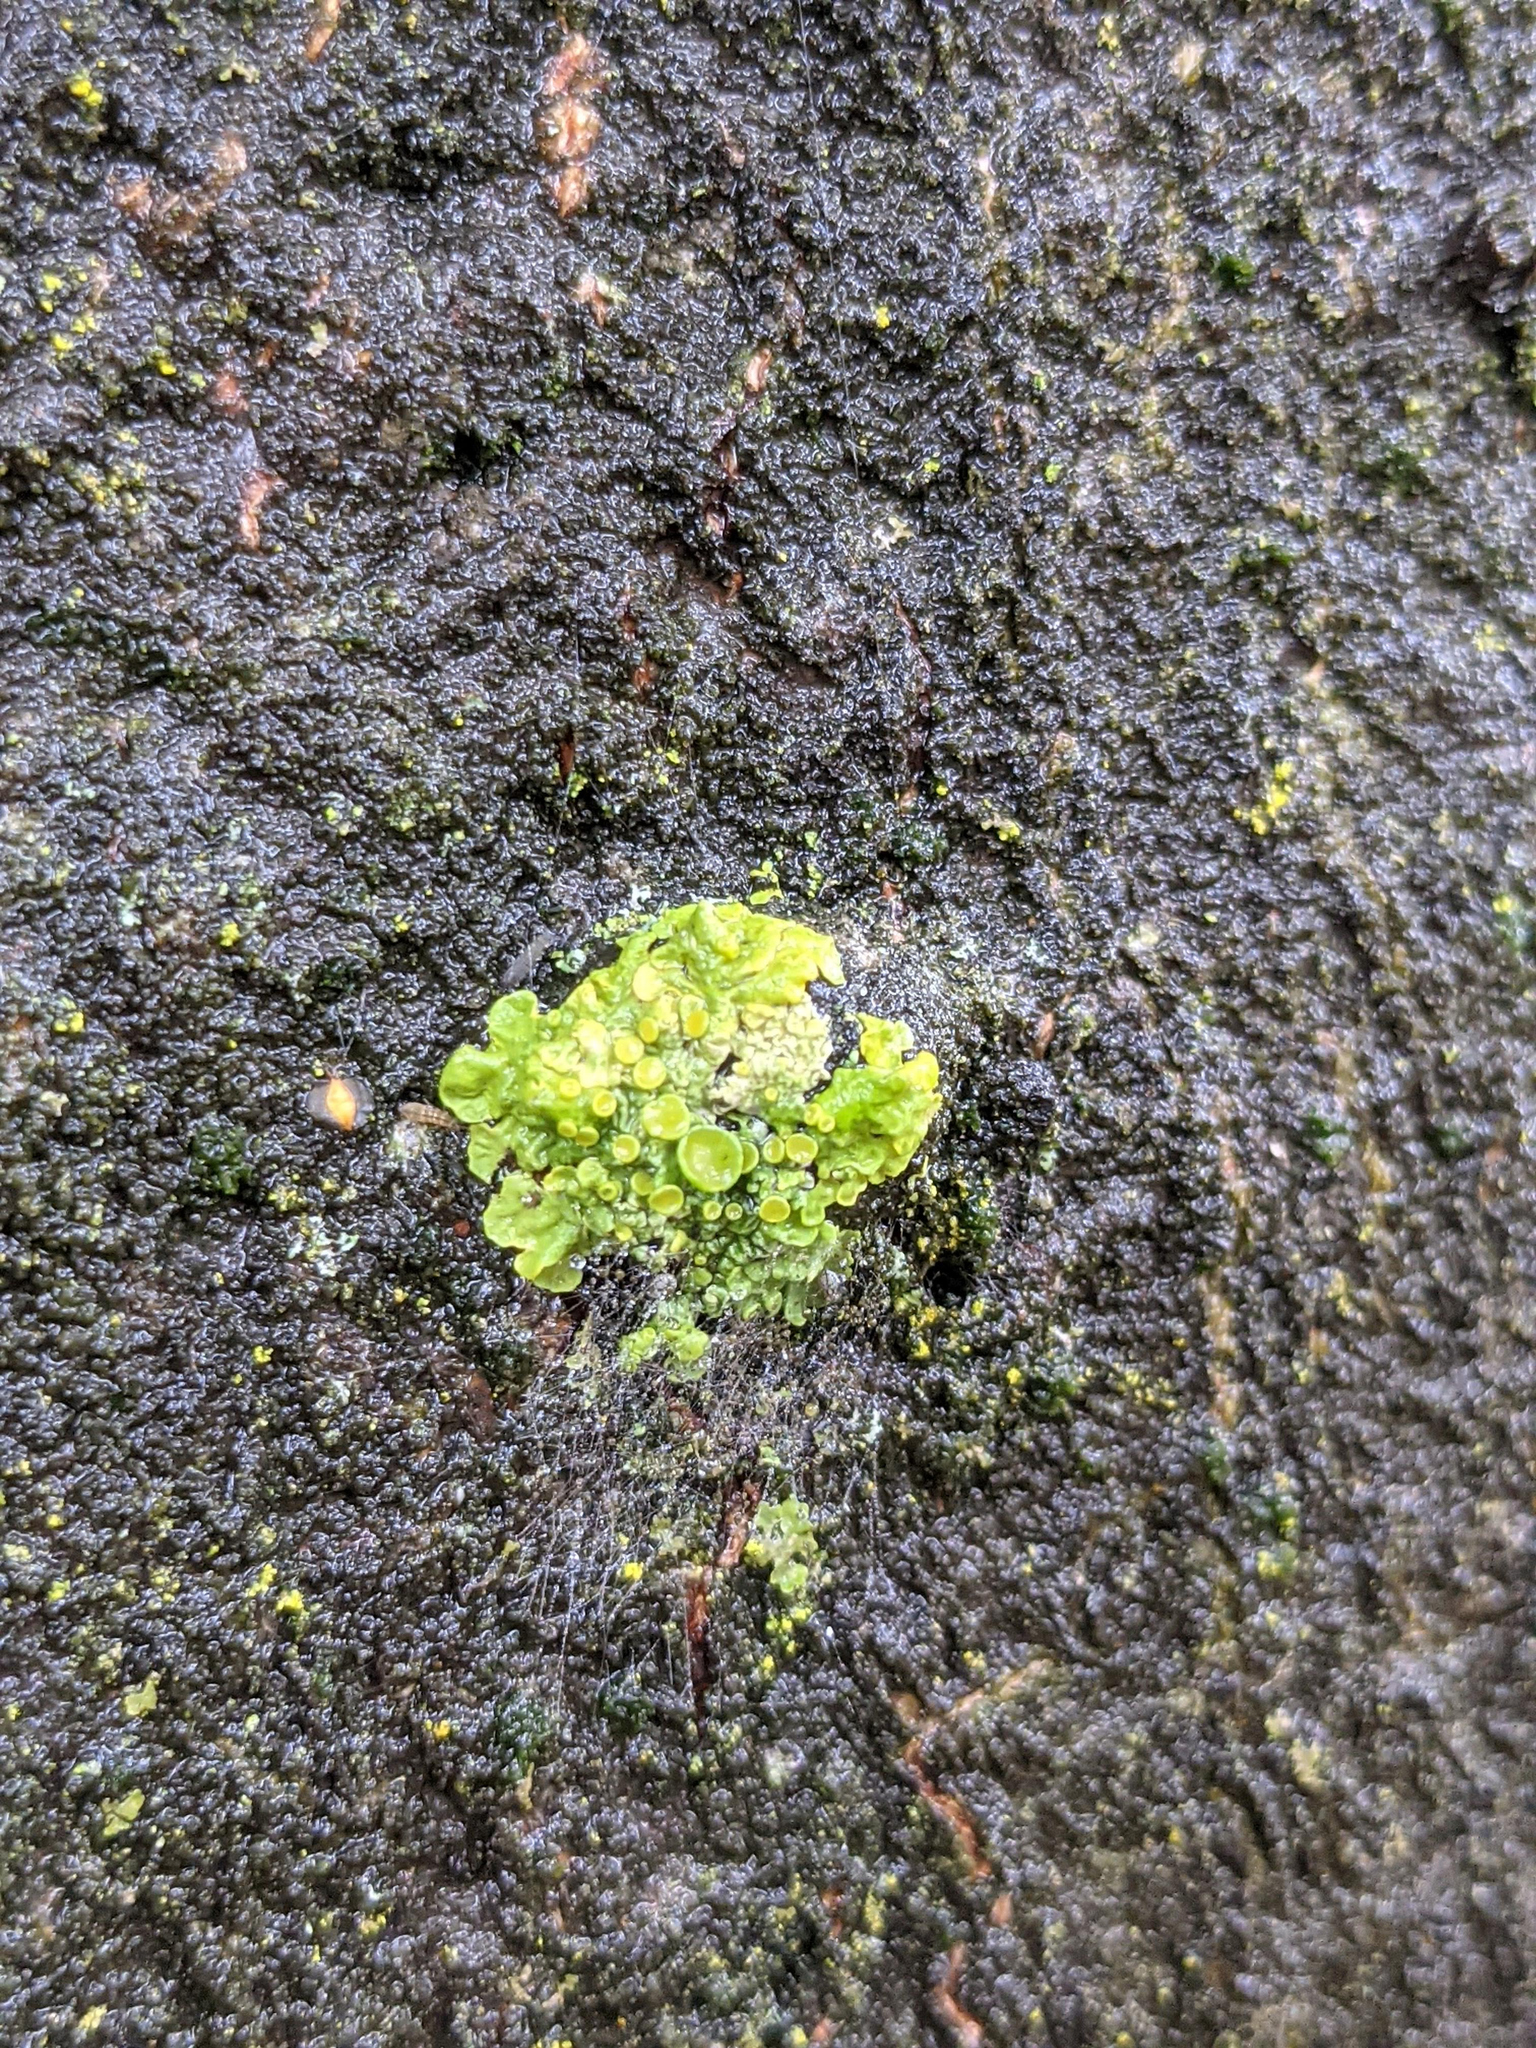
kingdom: Fungi
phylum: Ascomycota
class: Lecanoromycetes
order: Teloschistales
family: Teloschistaceae
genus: Xanthoria
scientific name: Xanthoria parietina
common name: Common orange lichen
